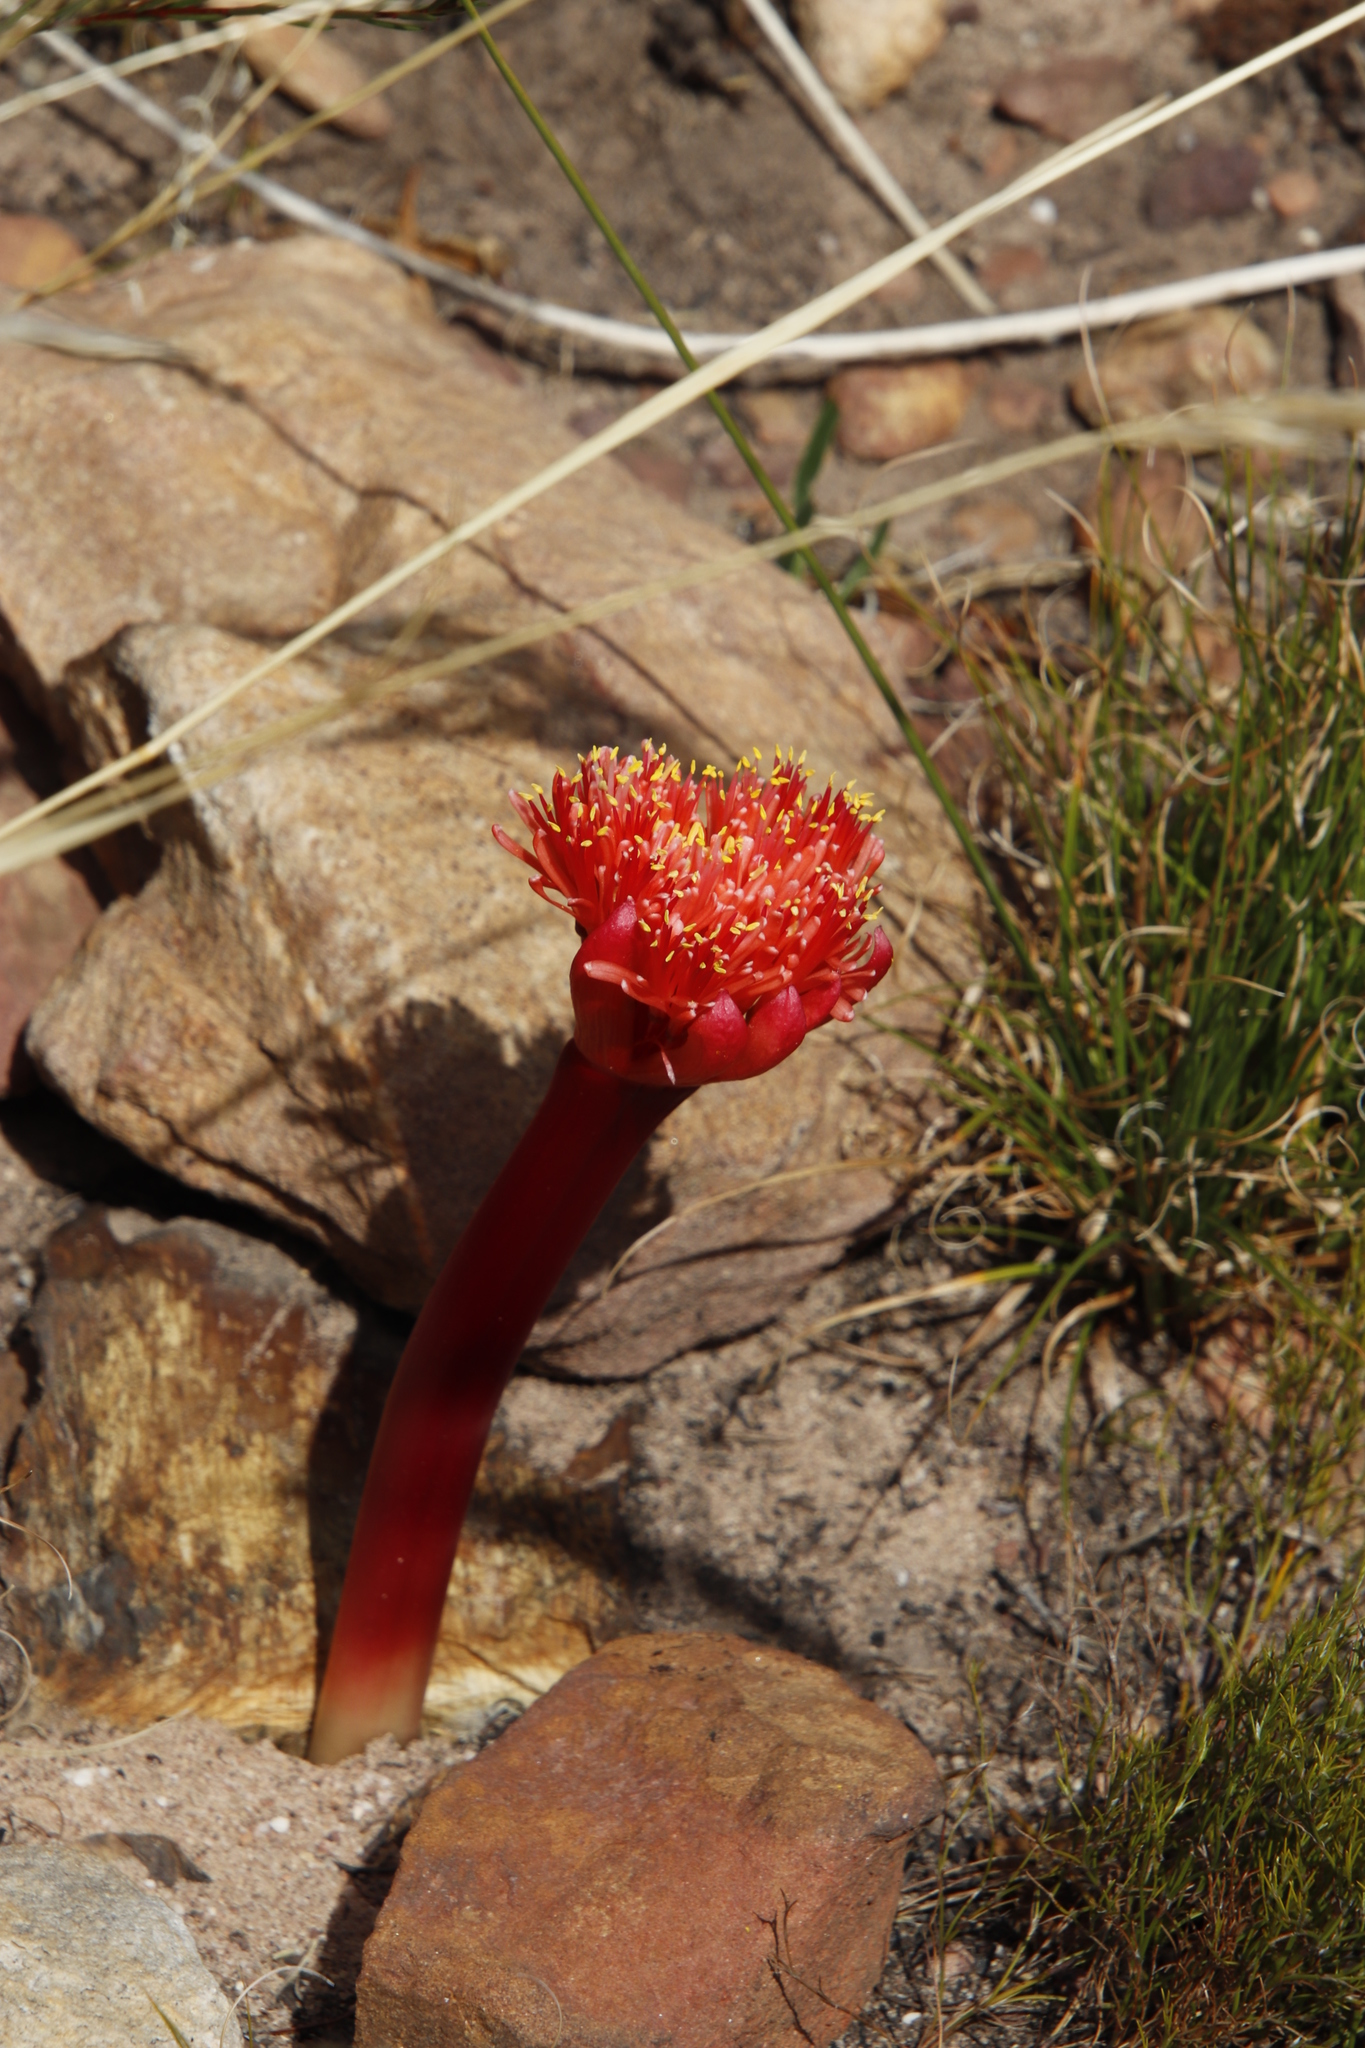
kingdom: Plantae
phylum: Tracheophyta
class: Liliopsida
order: Asparagales
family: Amaryllidaceae
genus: Haemanthus
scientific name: Haemanthus sanguineus
